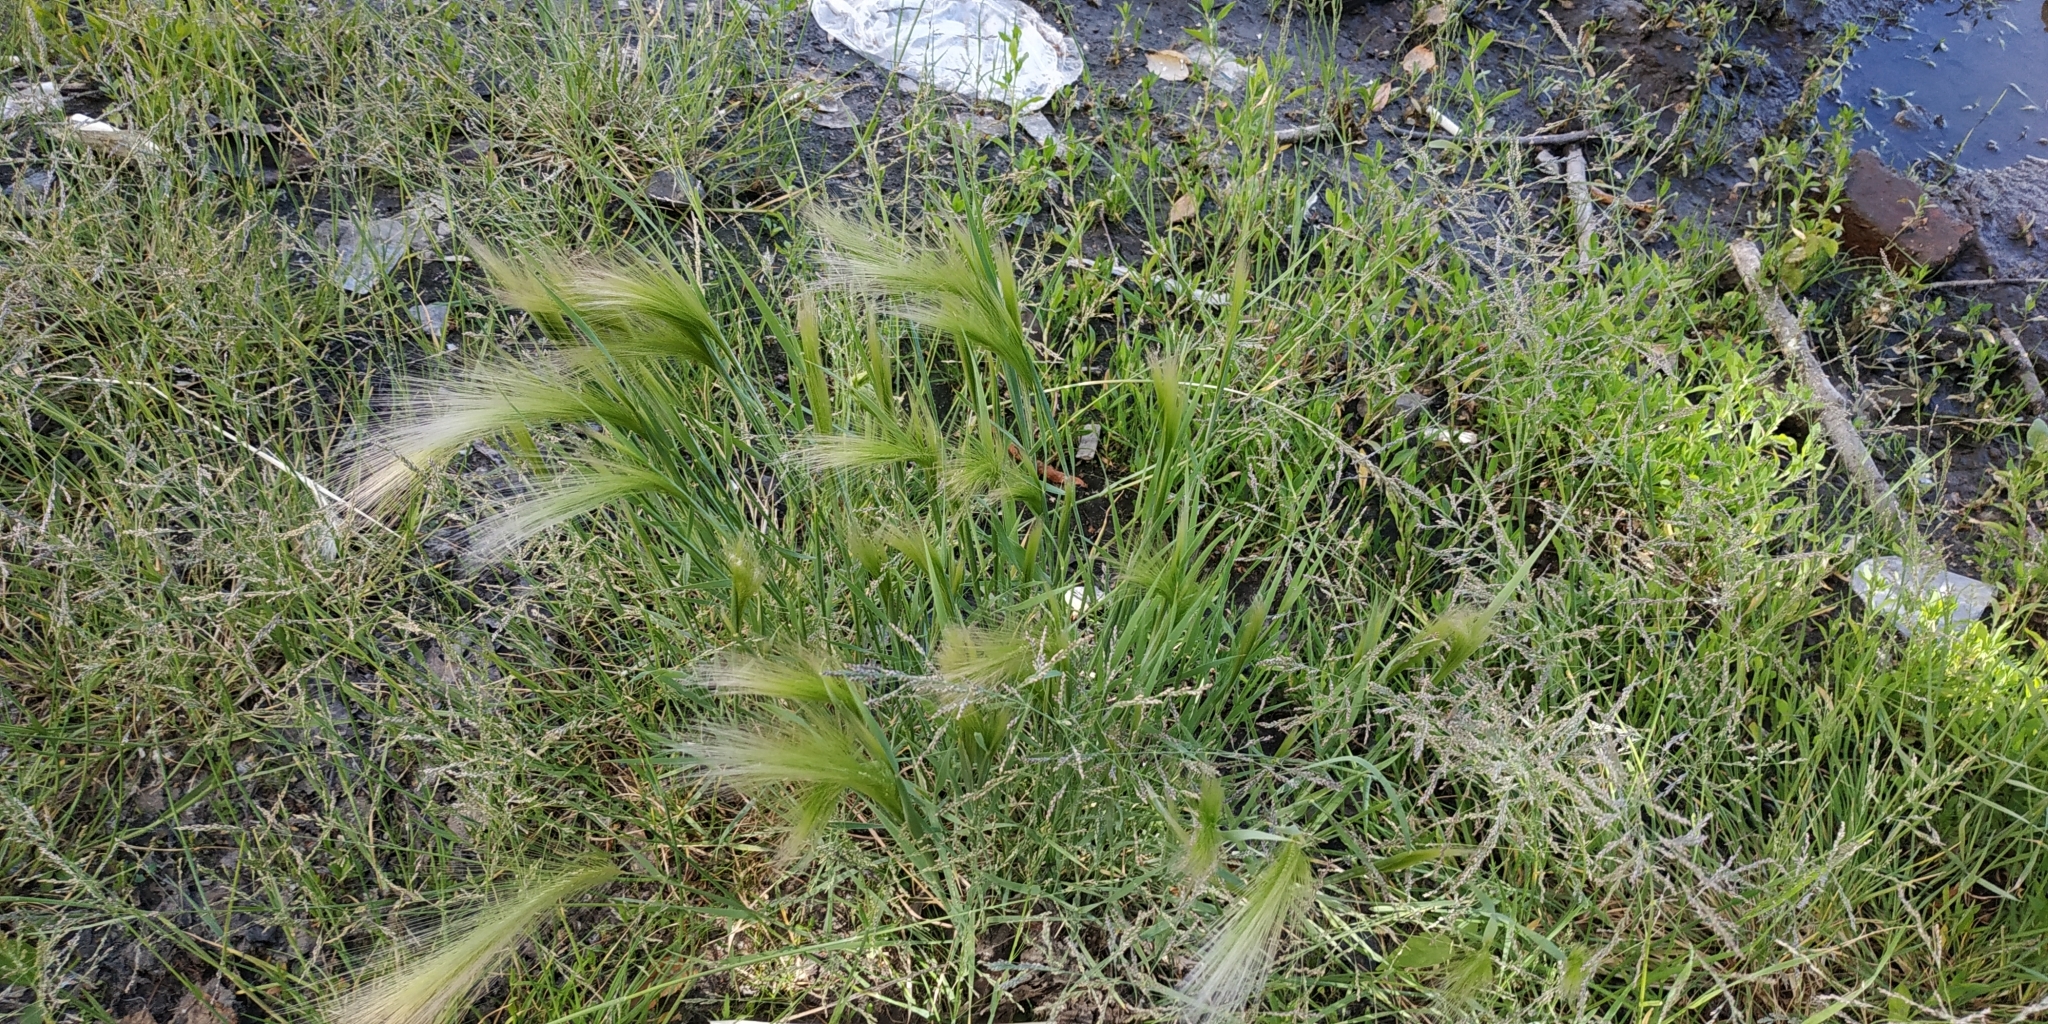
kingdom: Plantae
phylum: Tracheophyta
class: Liliopsida
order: Poales
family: Poaceae
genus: Hordeum
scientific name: Hordeum jubatum
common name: Foxtail barley
